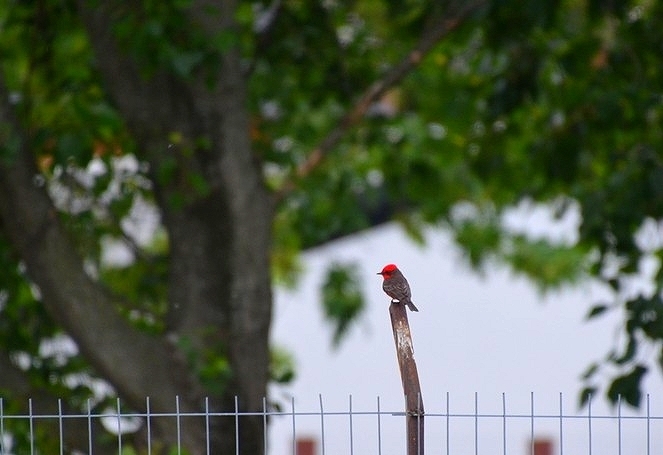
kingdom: Animalia
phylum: Chordata
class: Aves
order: Passeriformes
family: Tyrannidae
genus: Pyrocephalus
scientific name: Pyrocephalus rubinus
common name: Vermilion flycatcher
